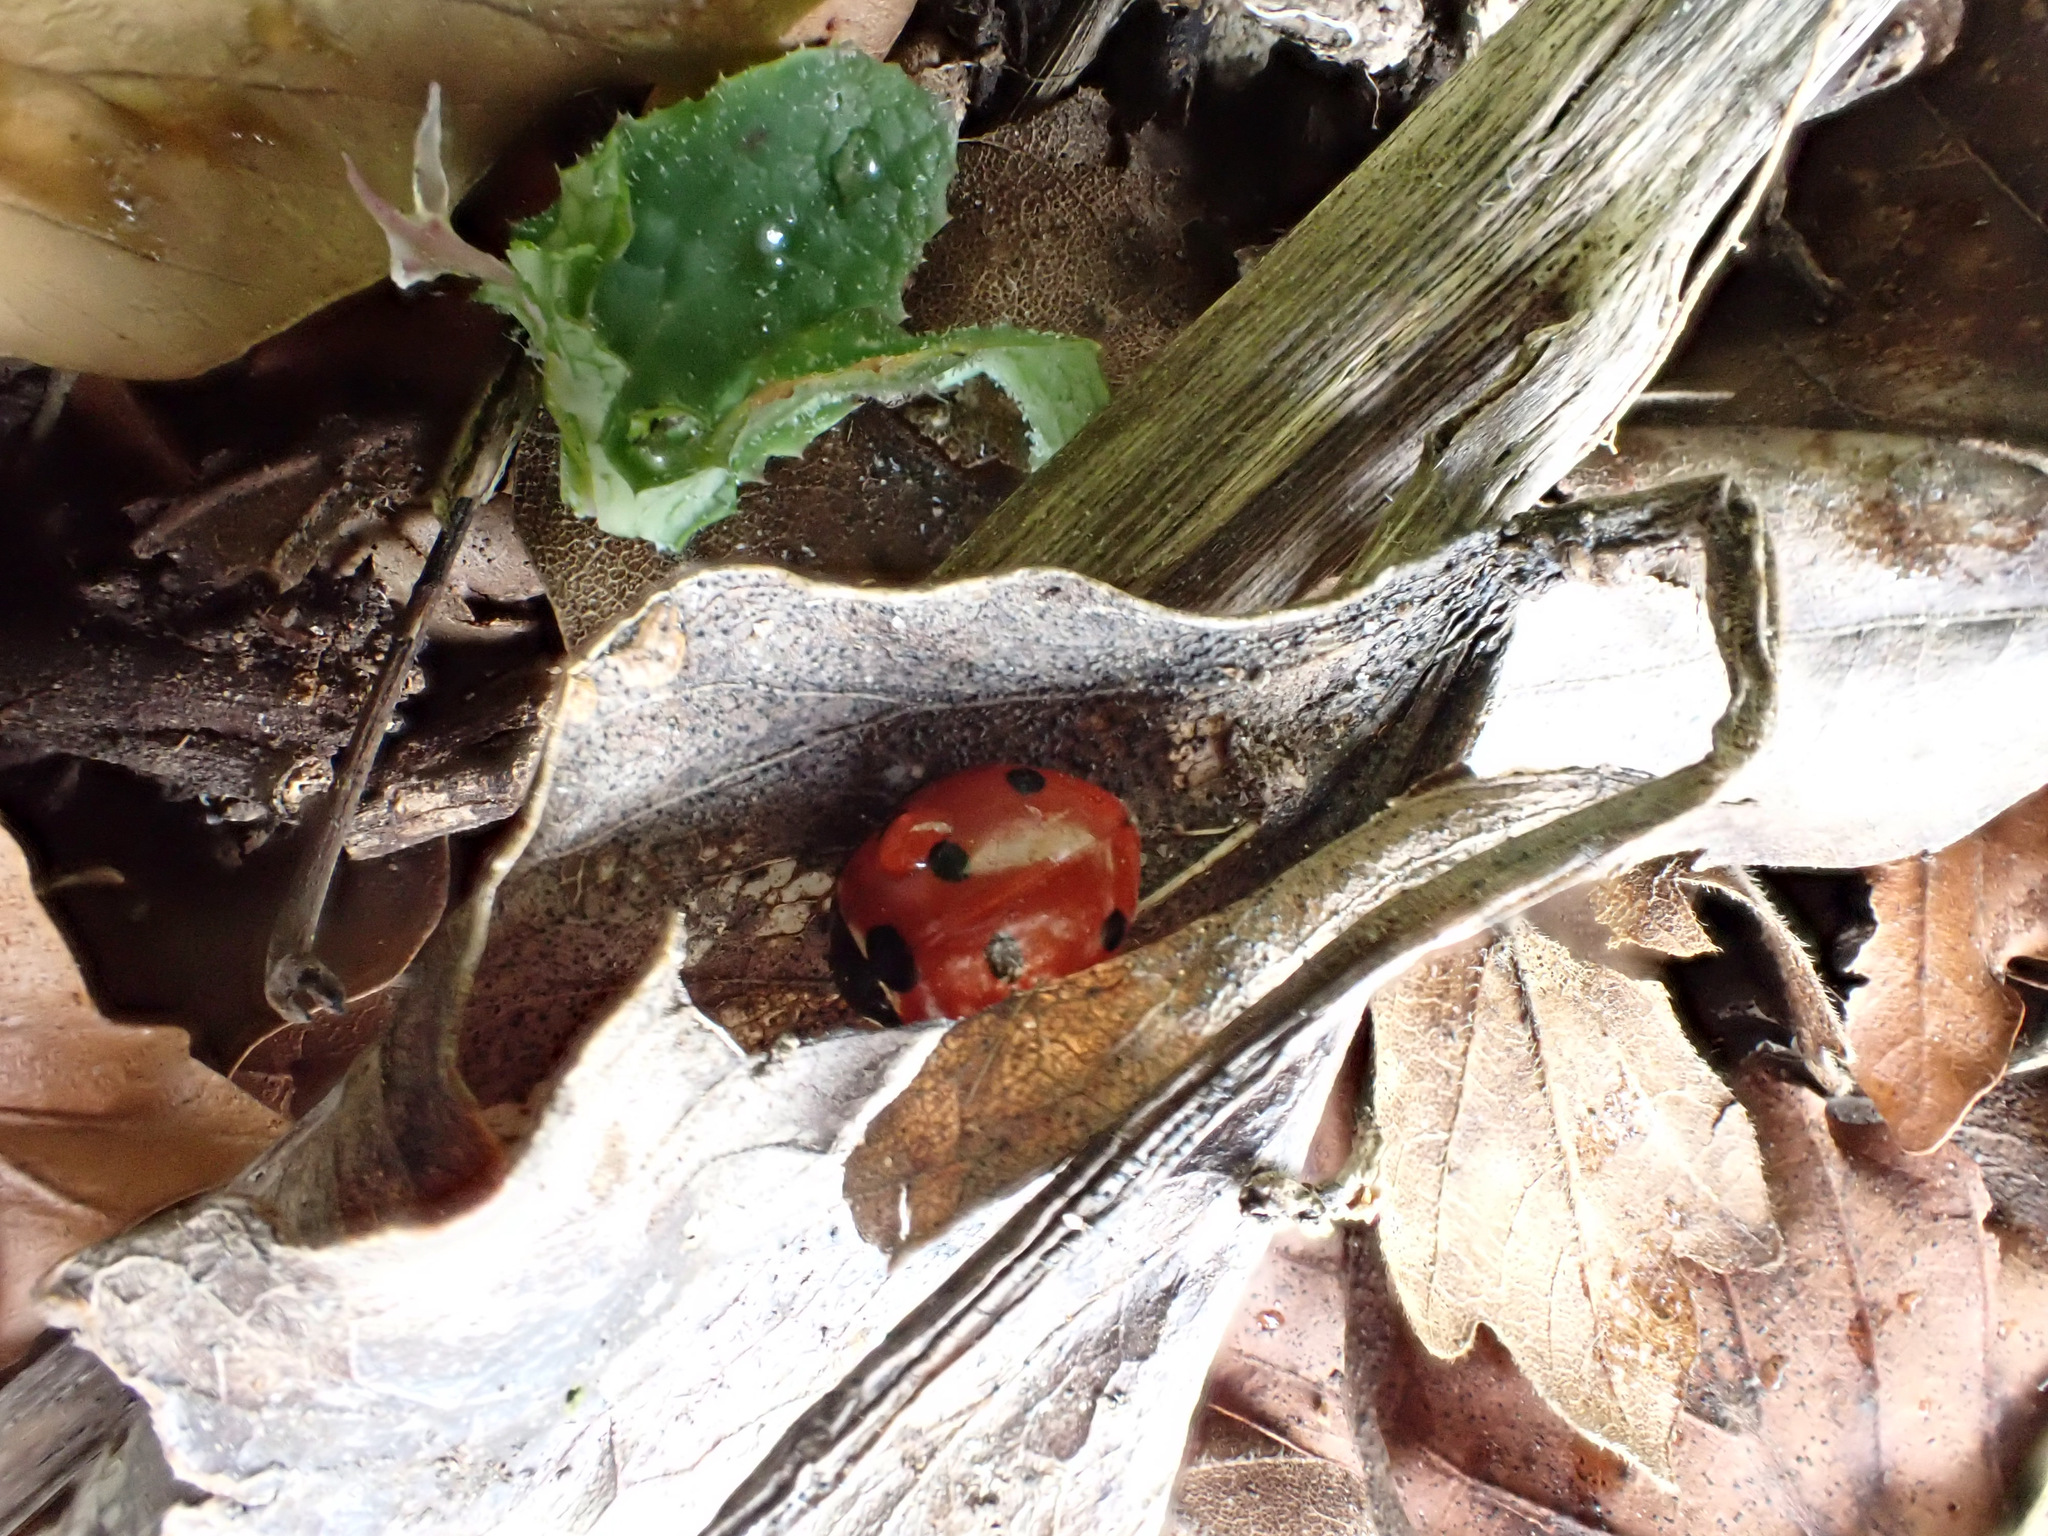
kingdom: Animalia
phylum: Arthropoda
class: Insecta
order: Coleoptera
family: Coccinellidae
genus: Coccinella
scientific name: Coccinella septempunctata
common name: Sevenspotted lady beetle
